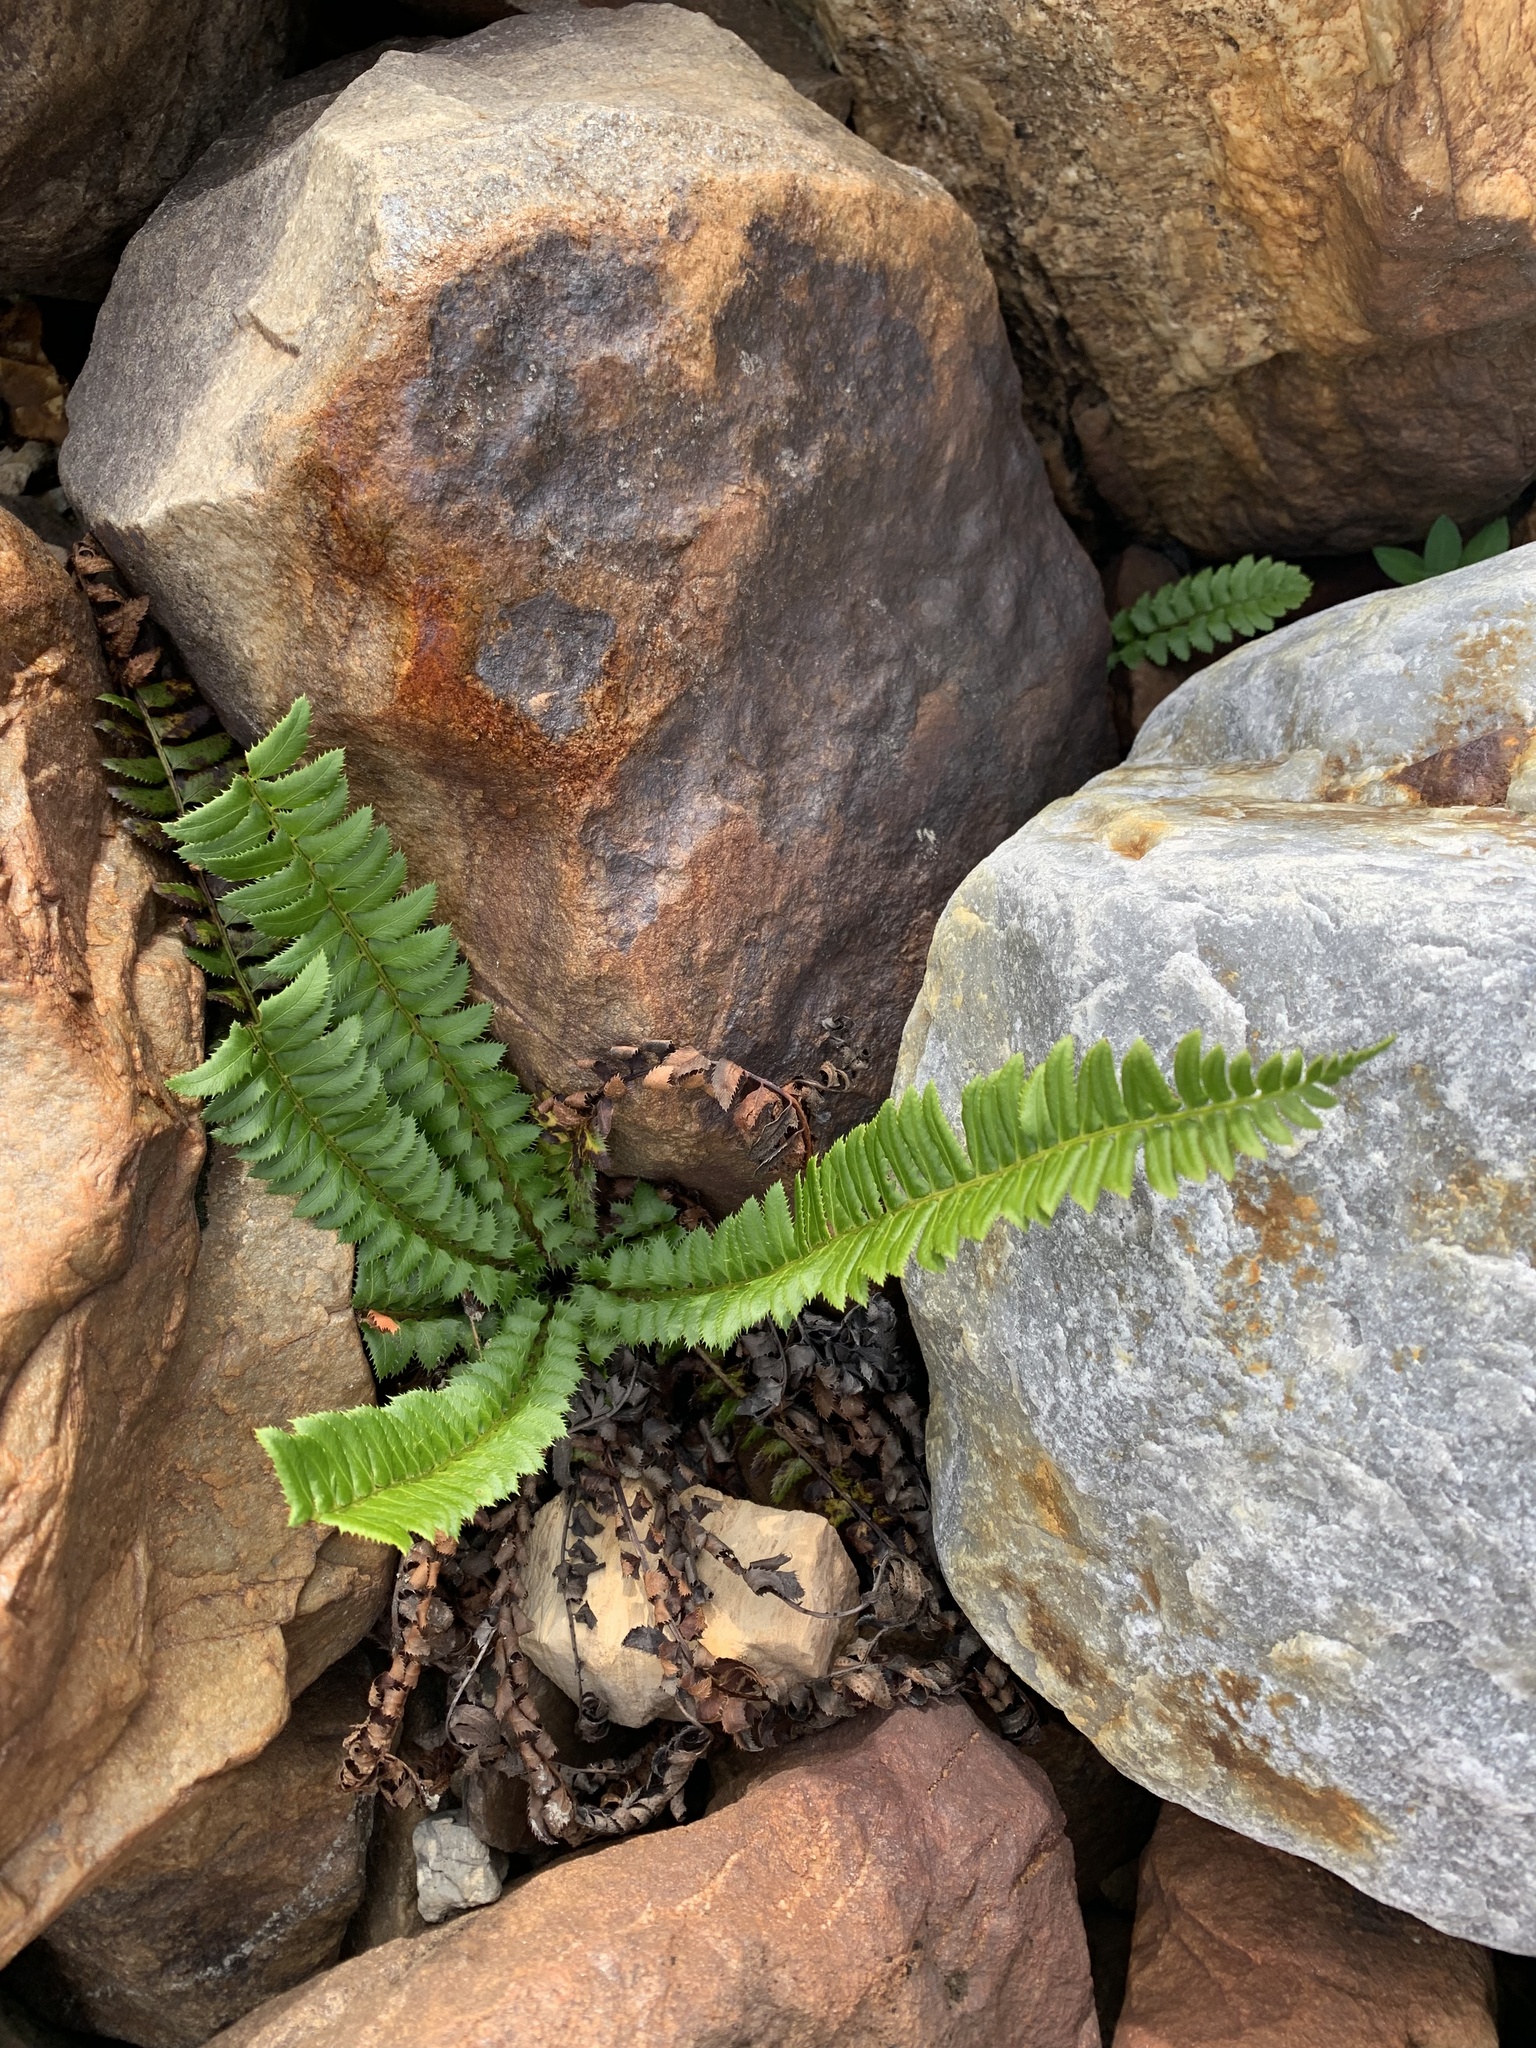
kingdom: Plantae
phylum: Tracheophyta
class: Polypodiopsida
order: Polypodiales
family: Dryopteridaceae
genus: Polystichum
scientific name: Polystichum lonchitis
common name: Holly fern
